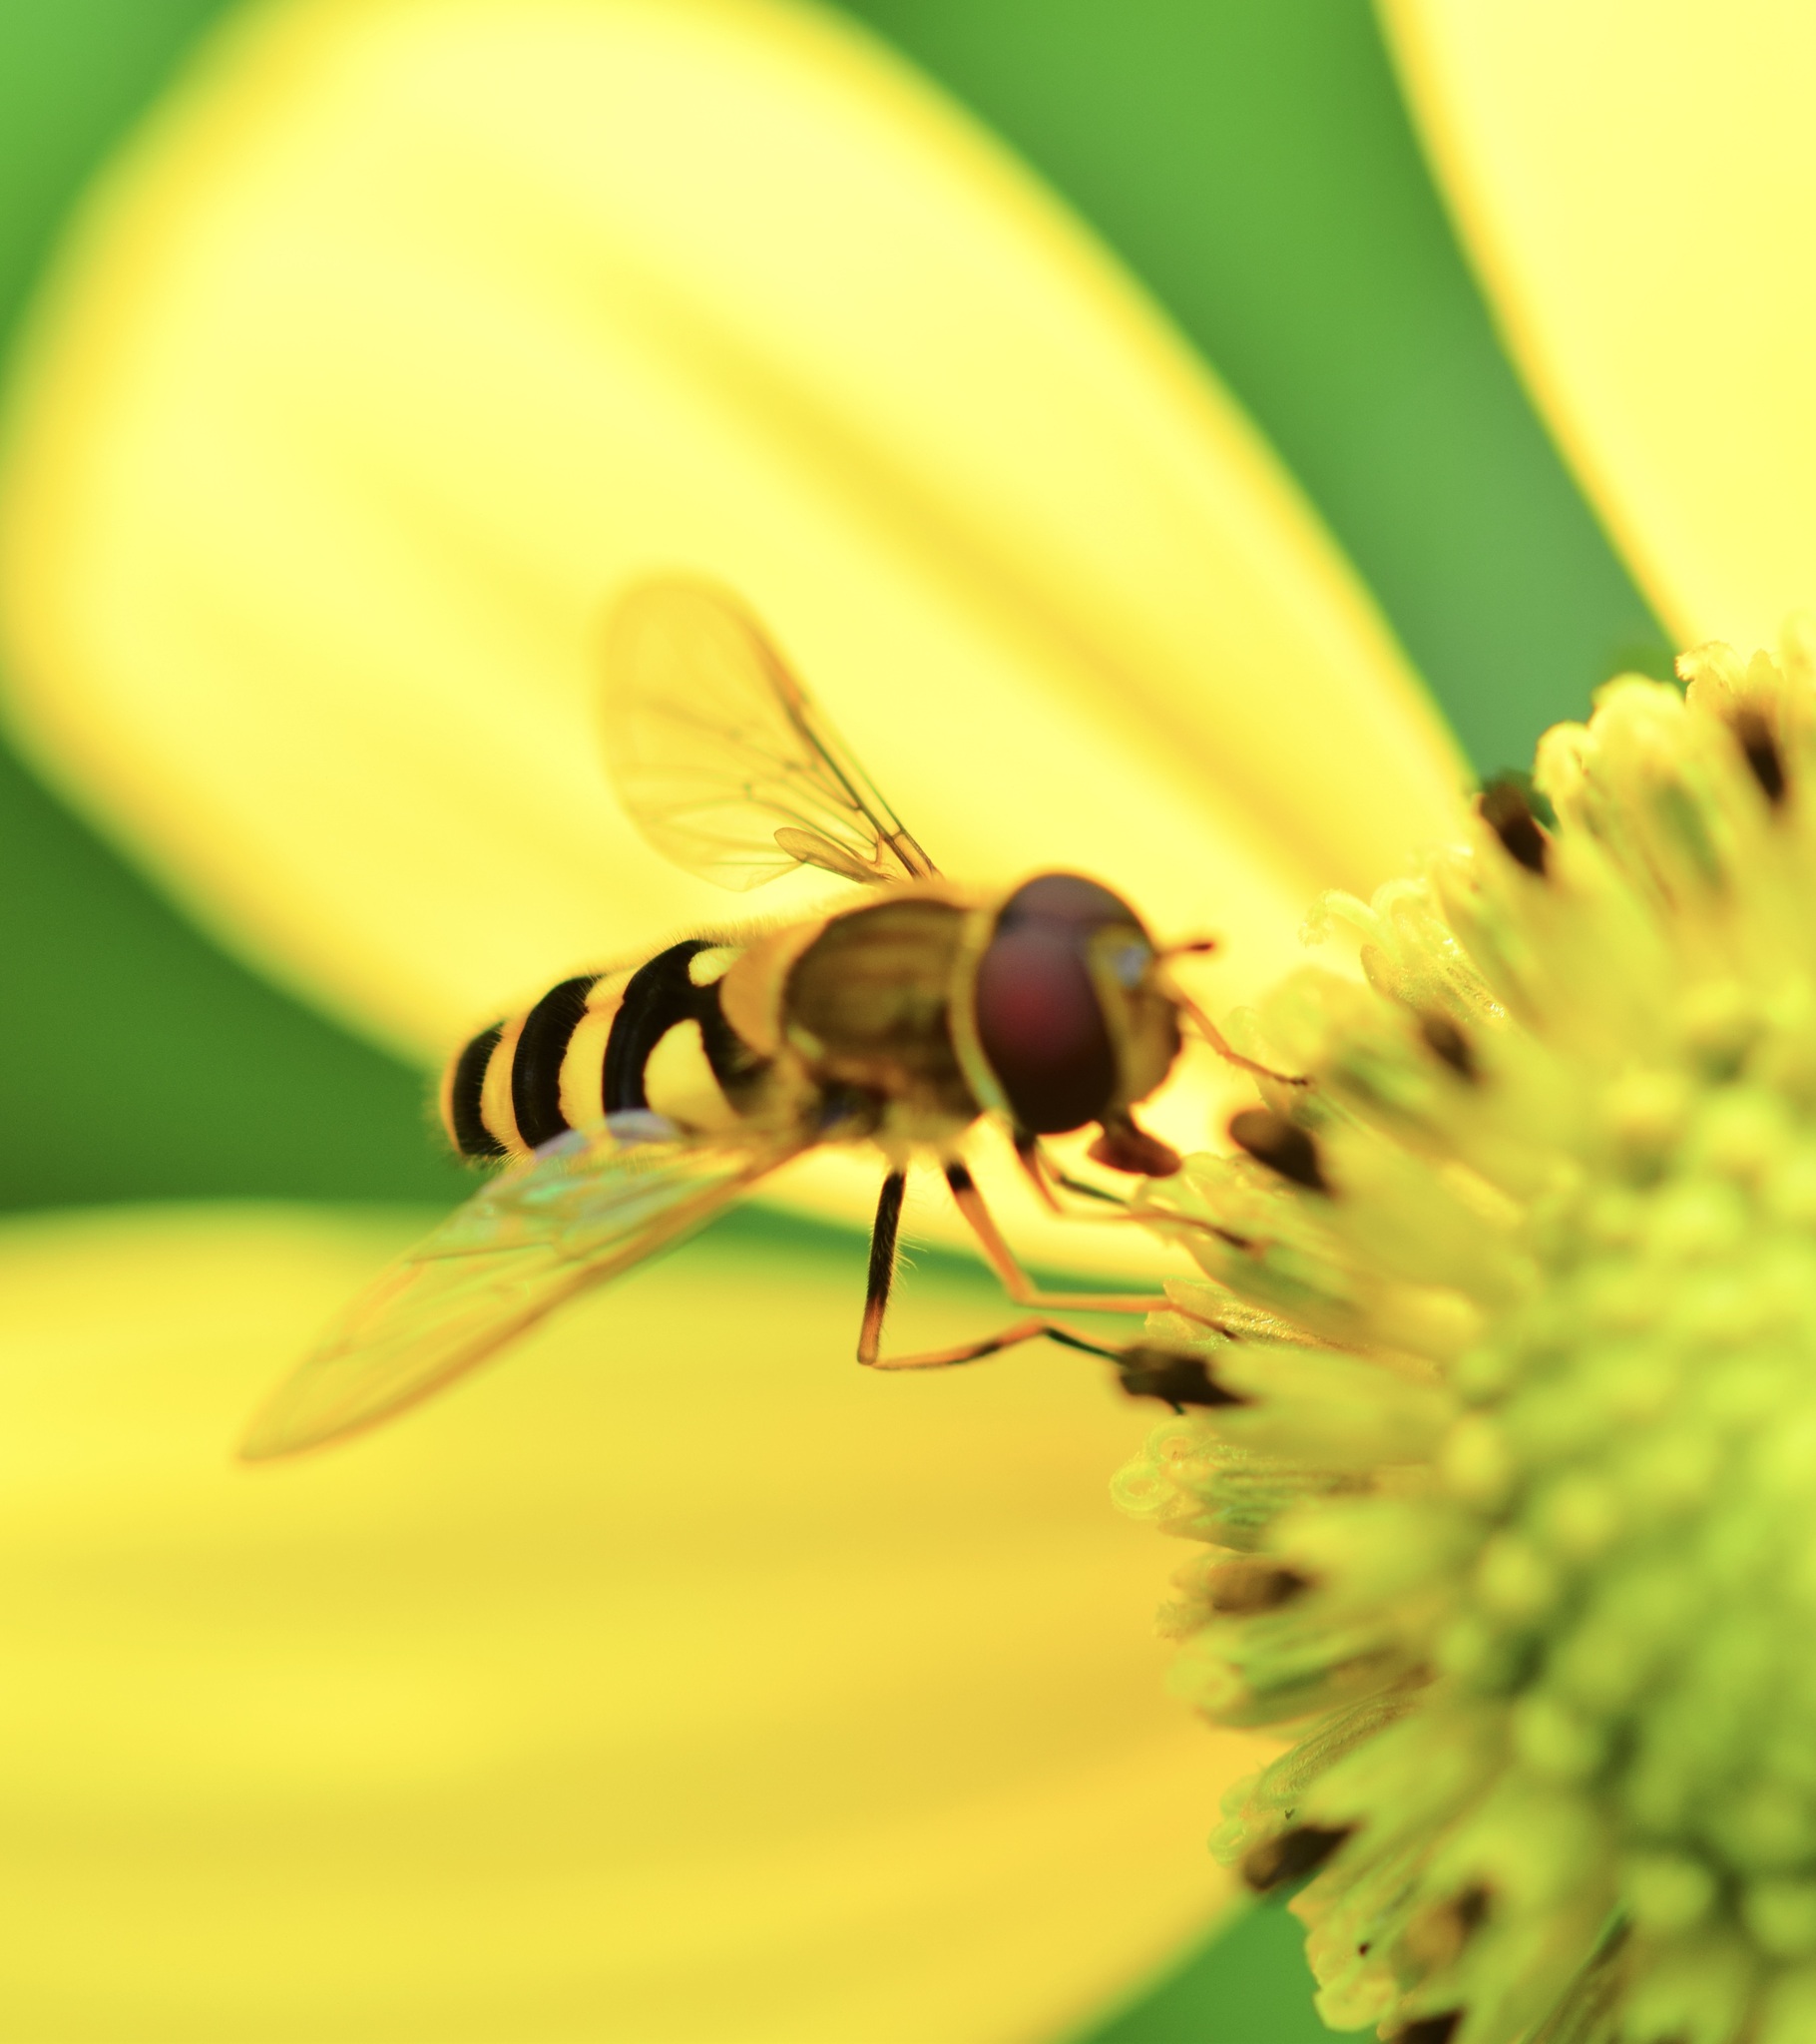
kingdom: Animalia
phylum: Arthropoda
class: Insecta
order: Diptera
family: Syrphidae
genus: Syrphus
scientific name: Syrphus
